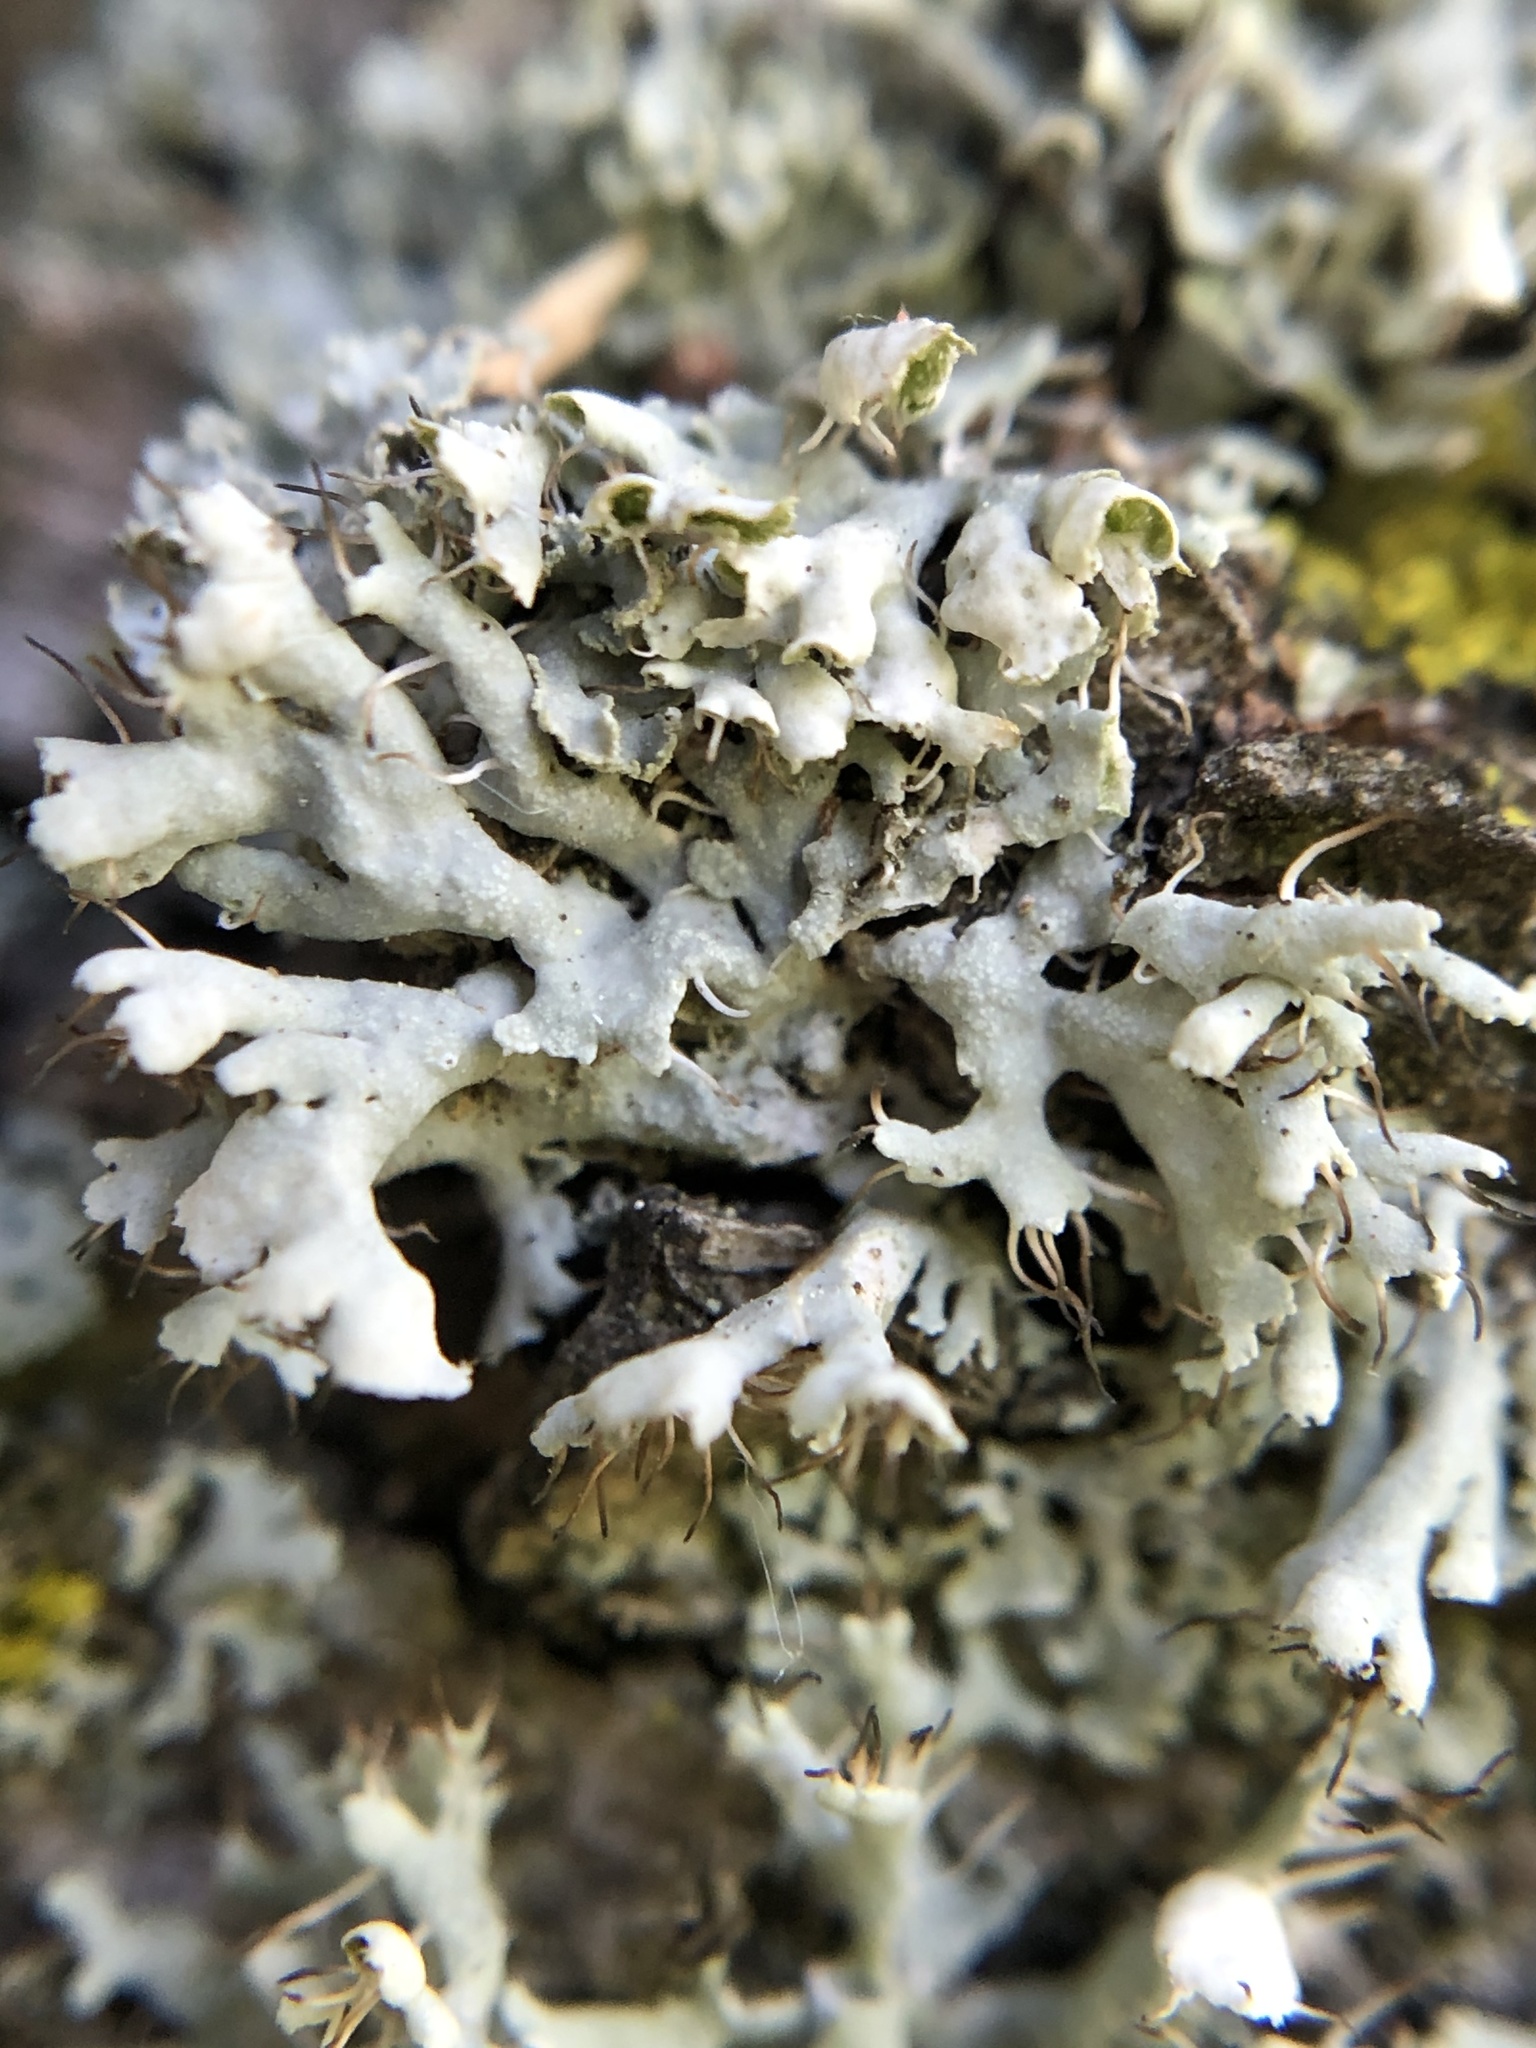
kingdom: Fungi
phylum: Ascomycota
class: Lecanoromycetes
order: Caliciales
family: Physciaceae
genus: Physcia
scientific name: Physcia adscendens
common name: Hooded rosette lichen
